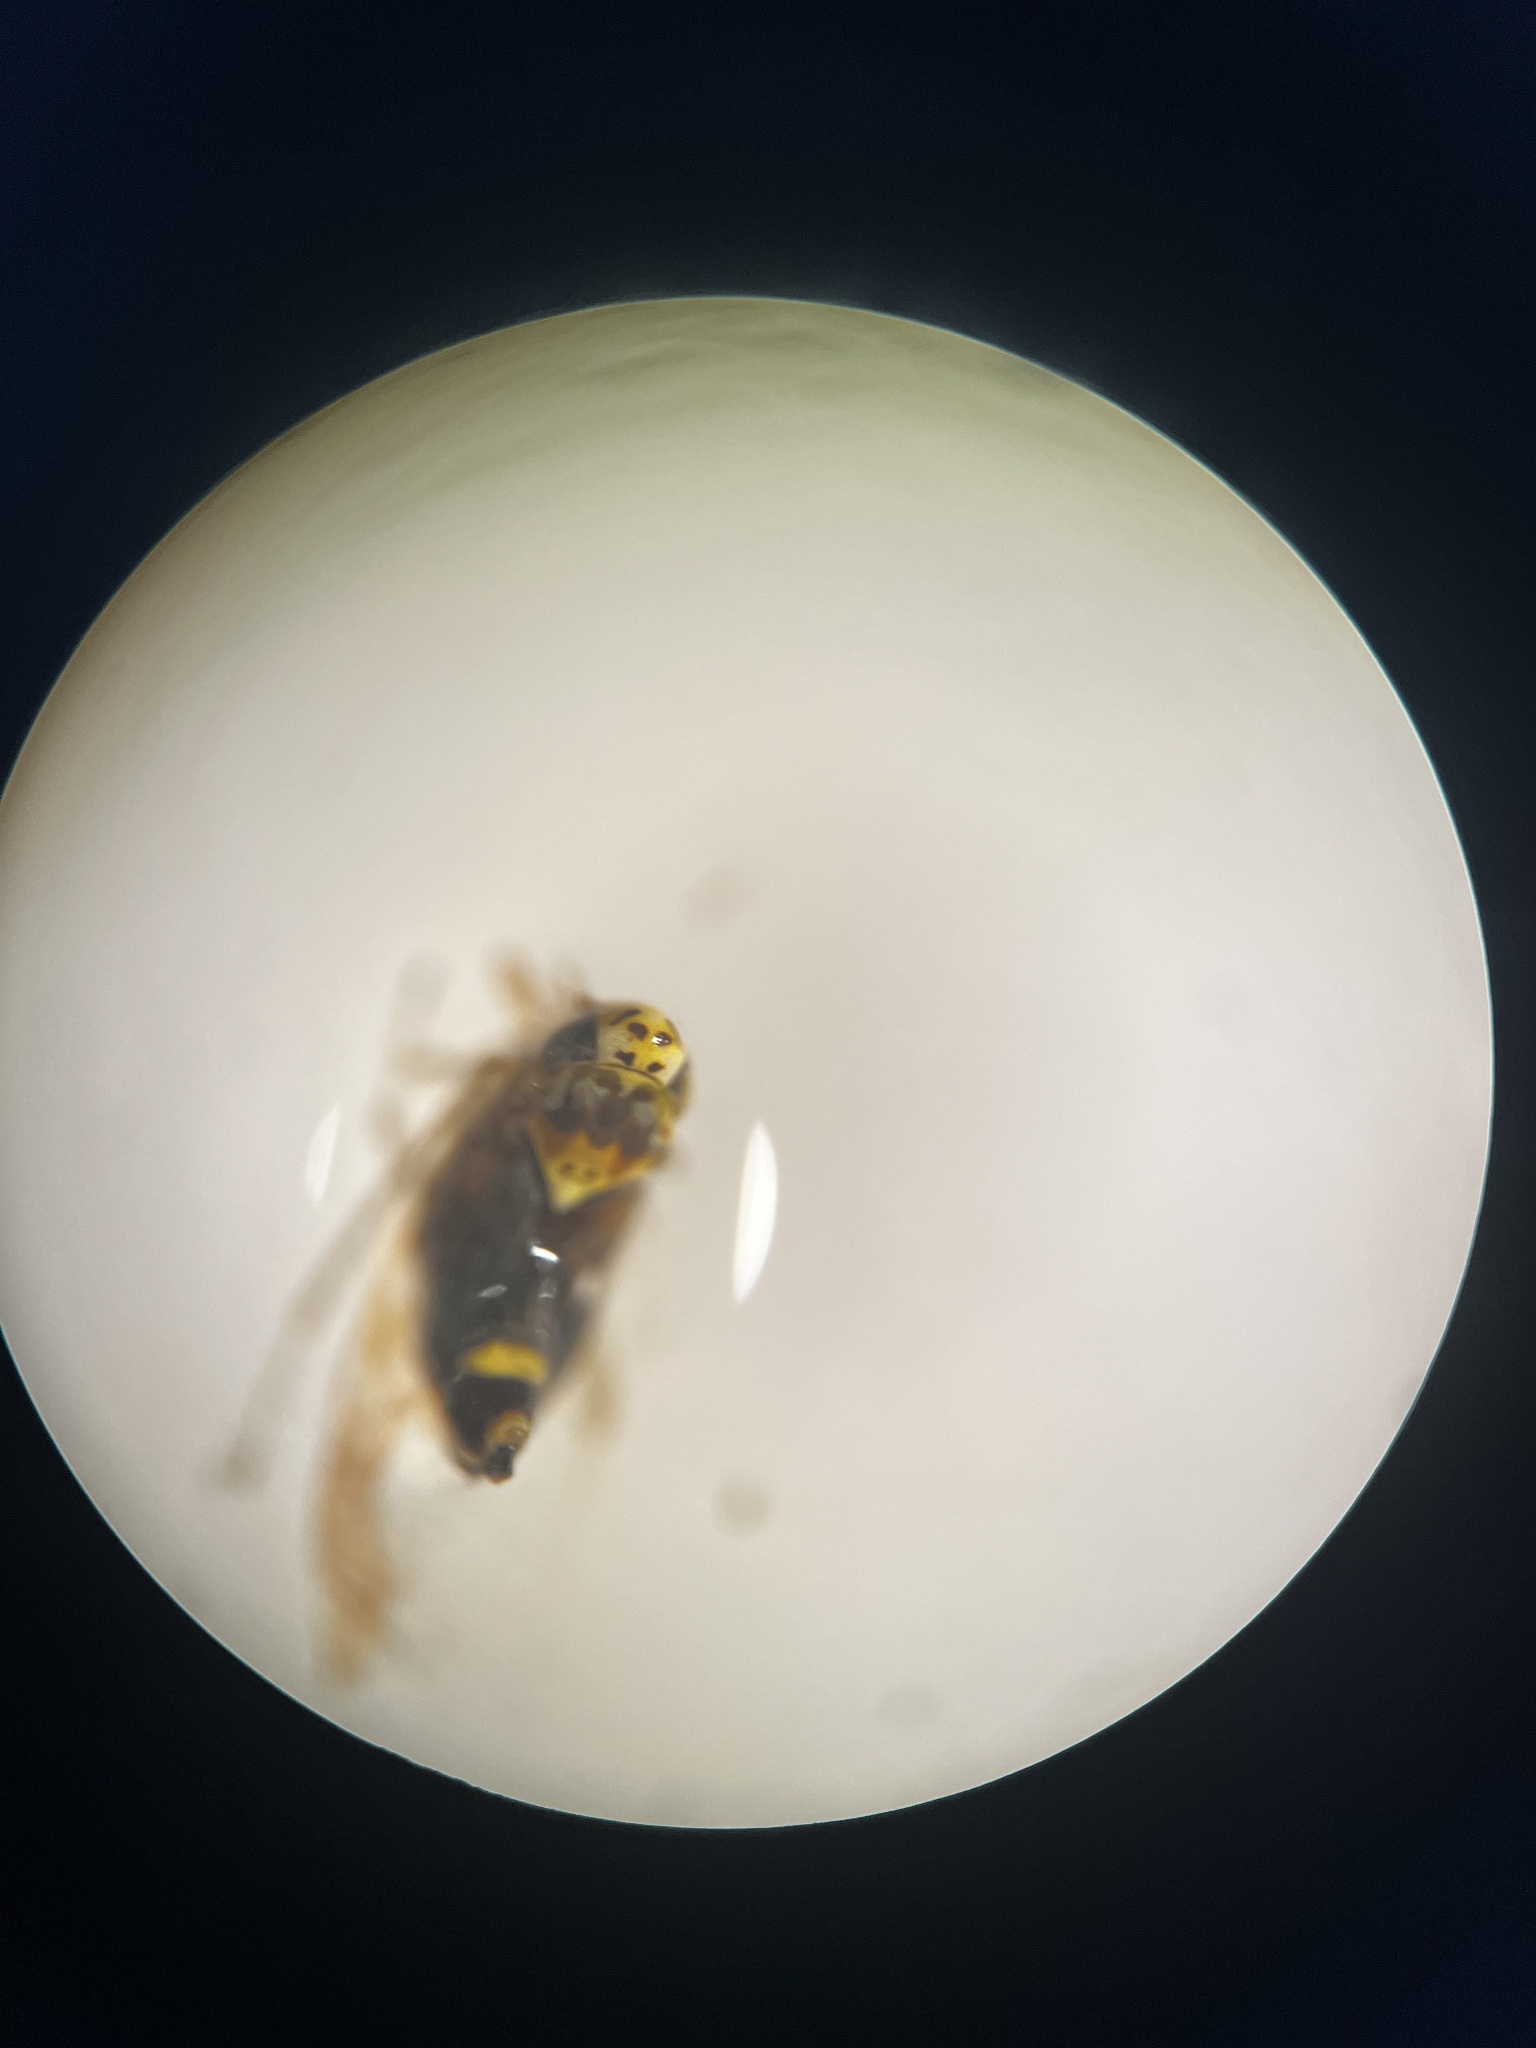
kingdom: Animalia
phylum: Arthropoda
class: Insecta
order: Hemiptera
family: Cicadellidae
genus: Eupteryx
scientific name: Eupteryx decemnotata
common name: Ligurian leafhopper
